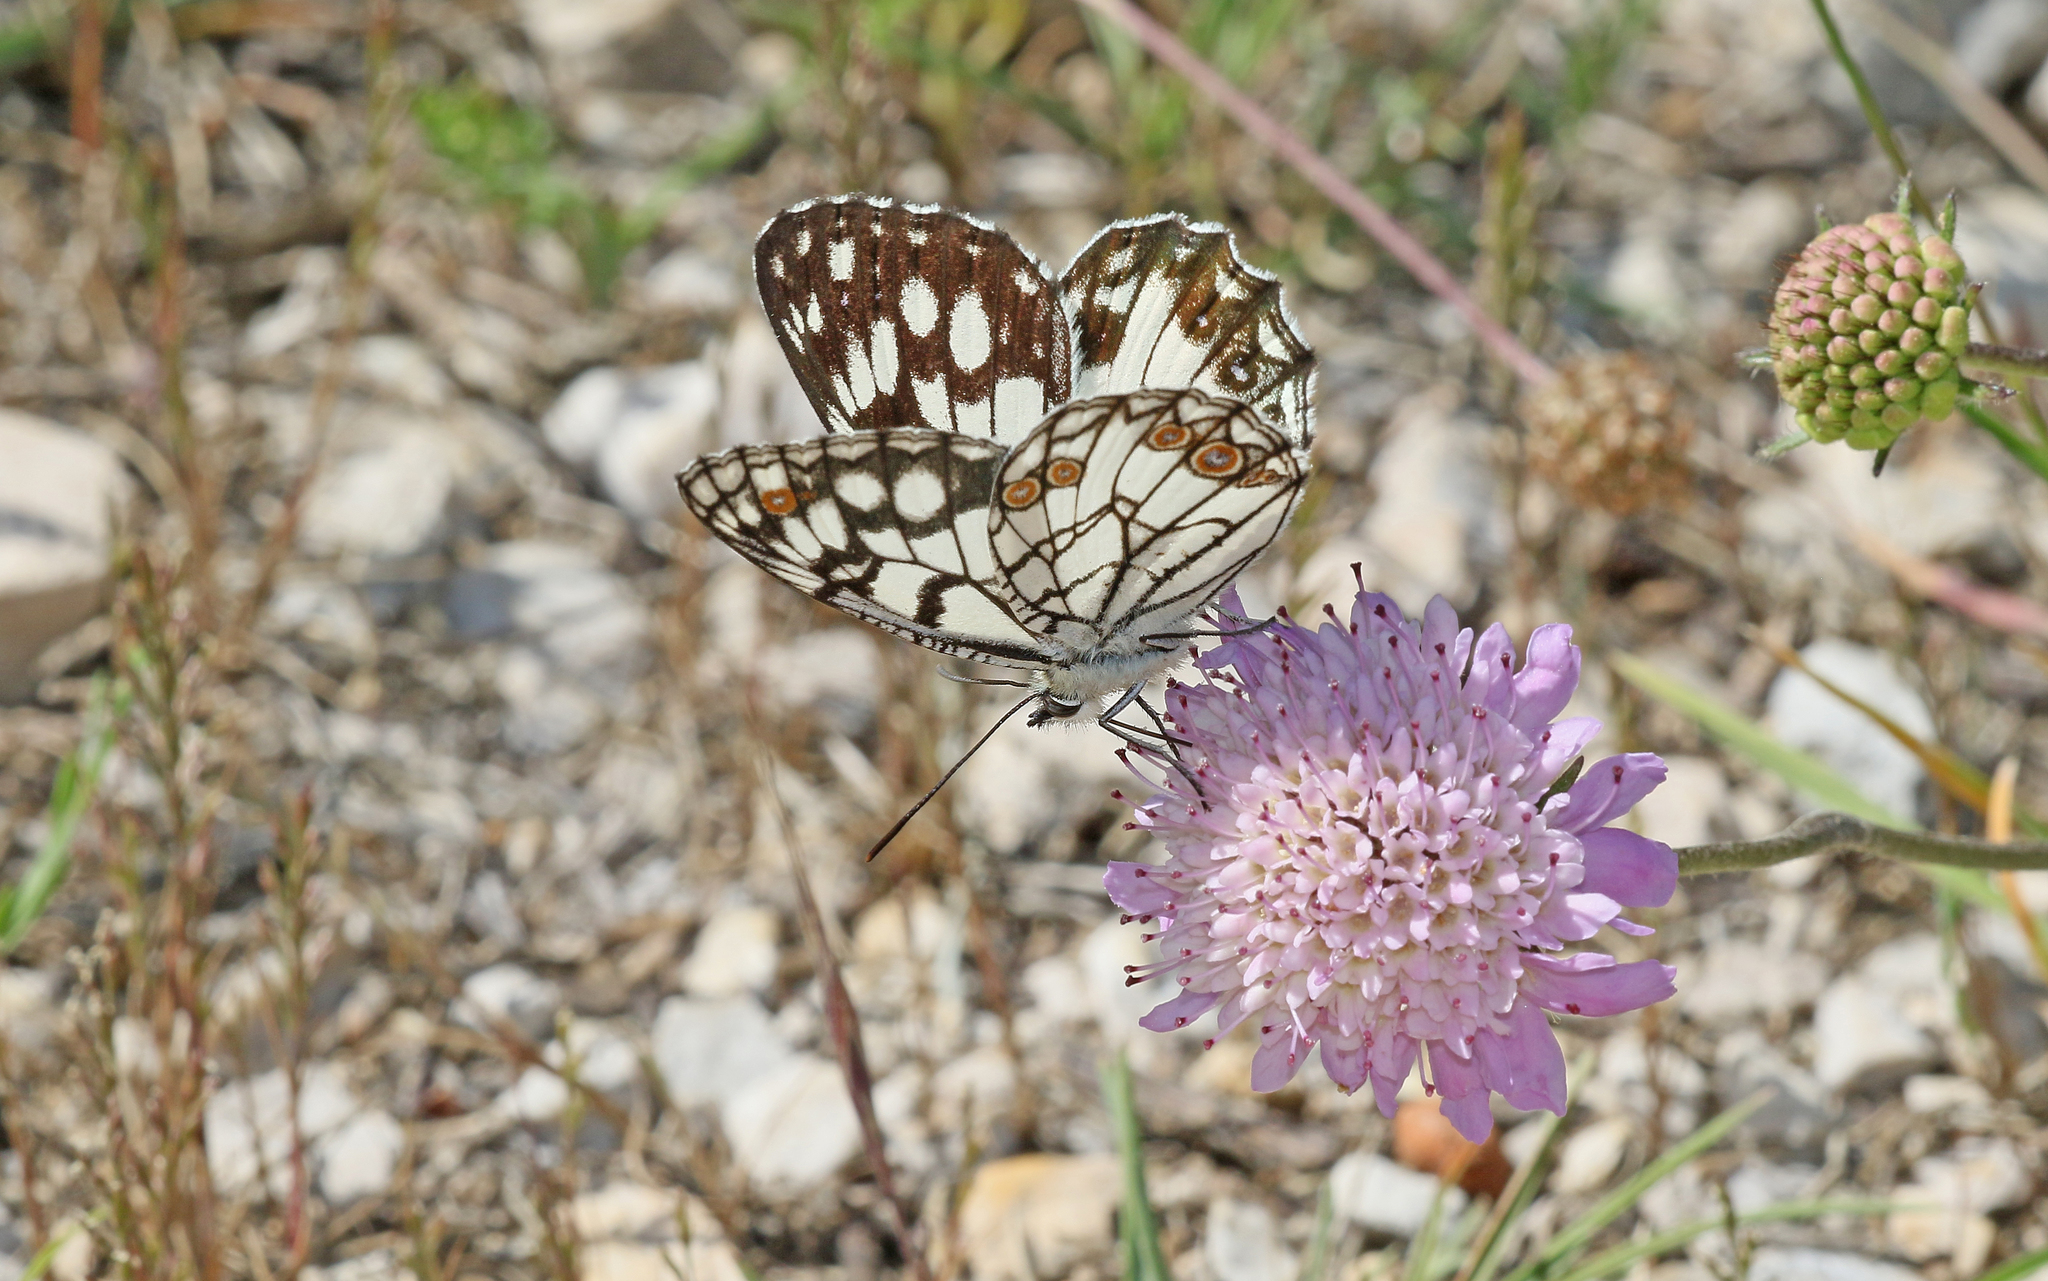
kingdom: Animalia
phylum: Arthropoda
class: Insecta
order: Lepidoptera
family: Nymphalidae
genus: Melanargia
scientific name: Melanargia ines
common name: Spanish marbled white
